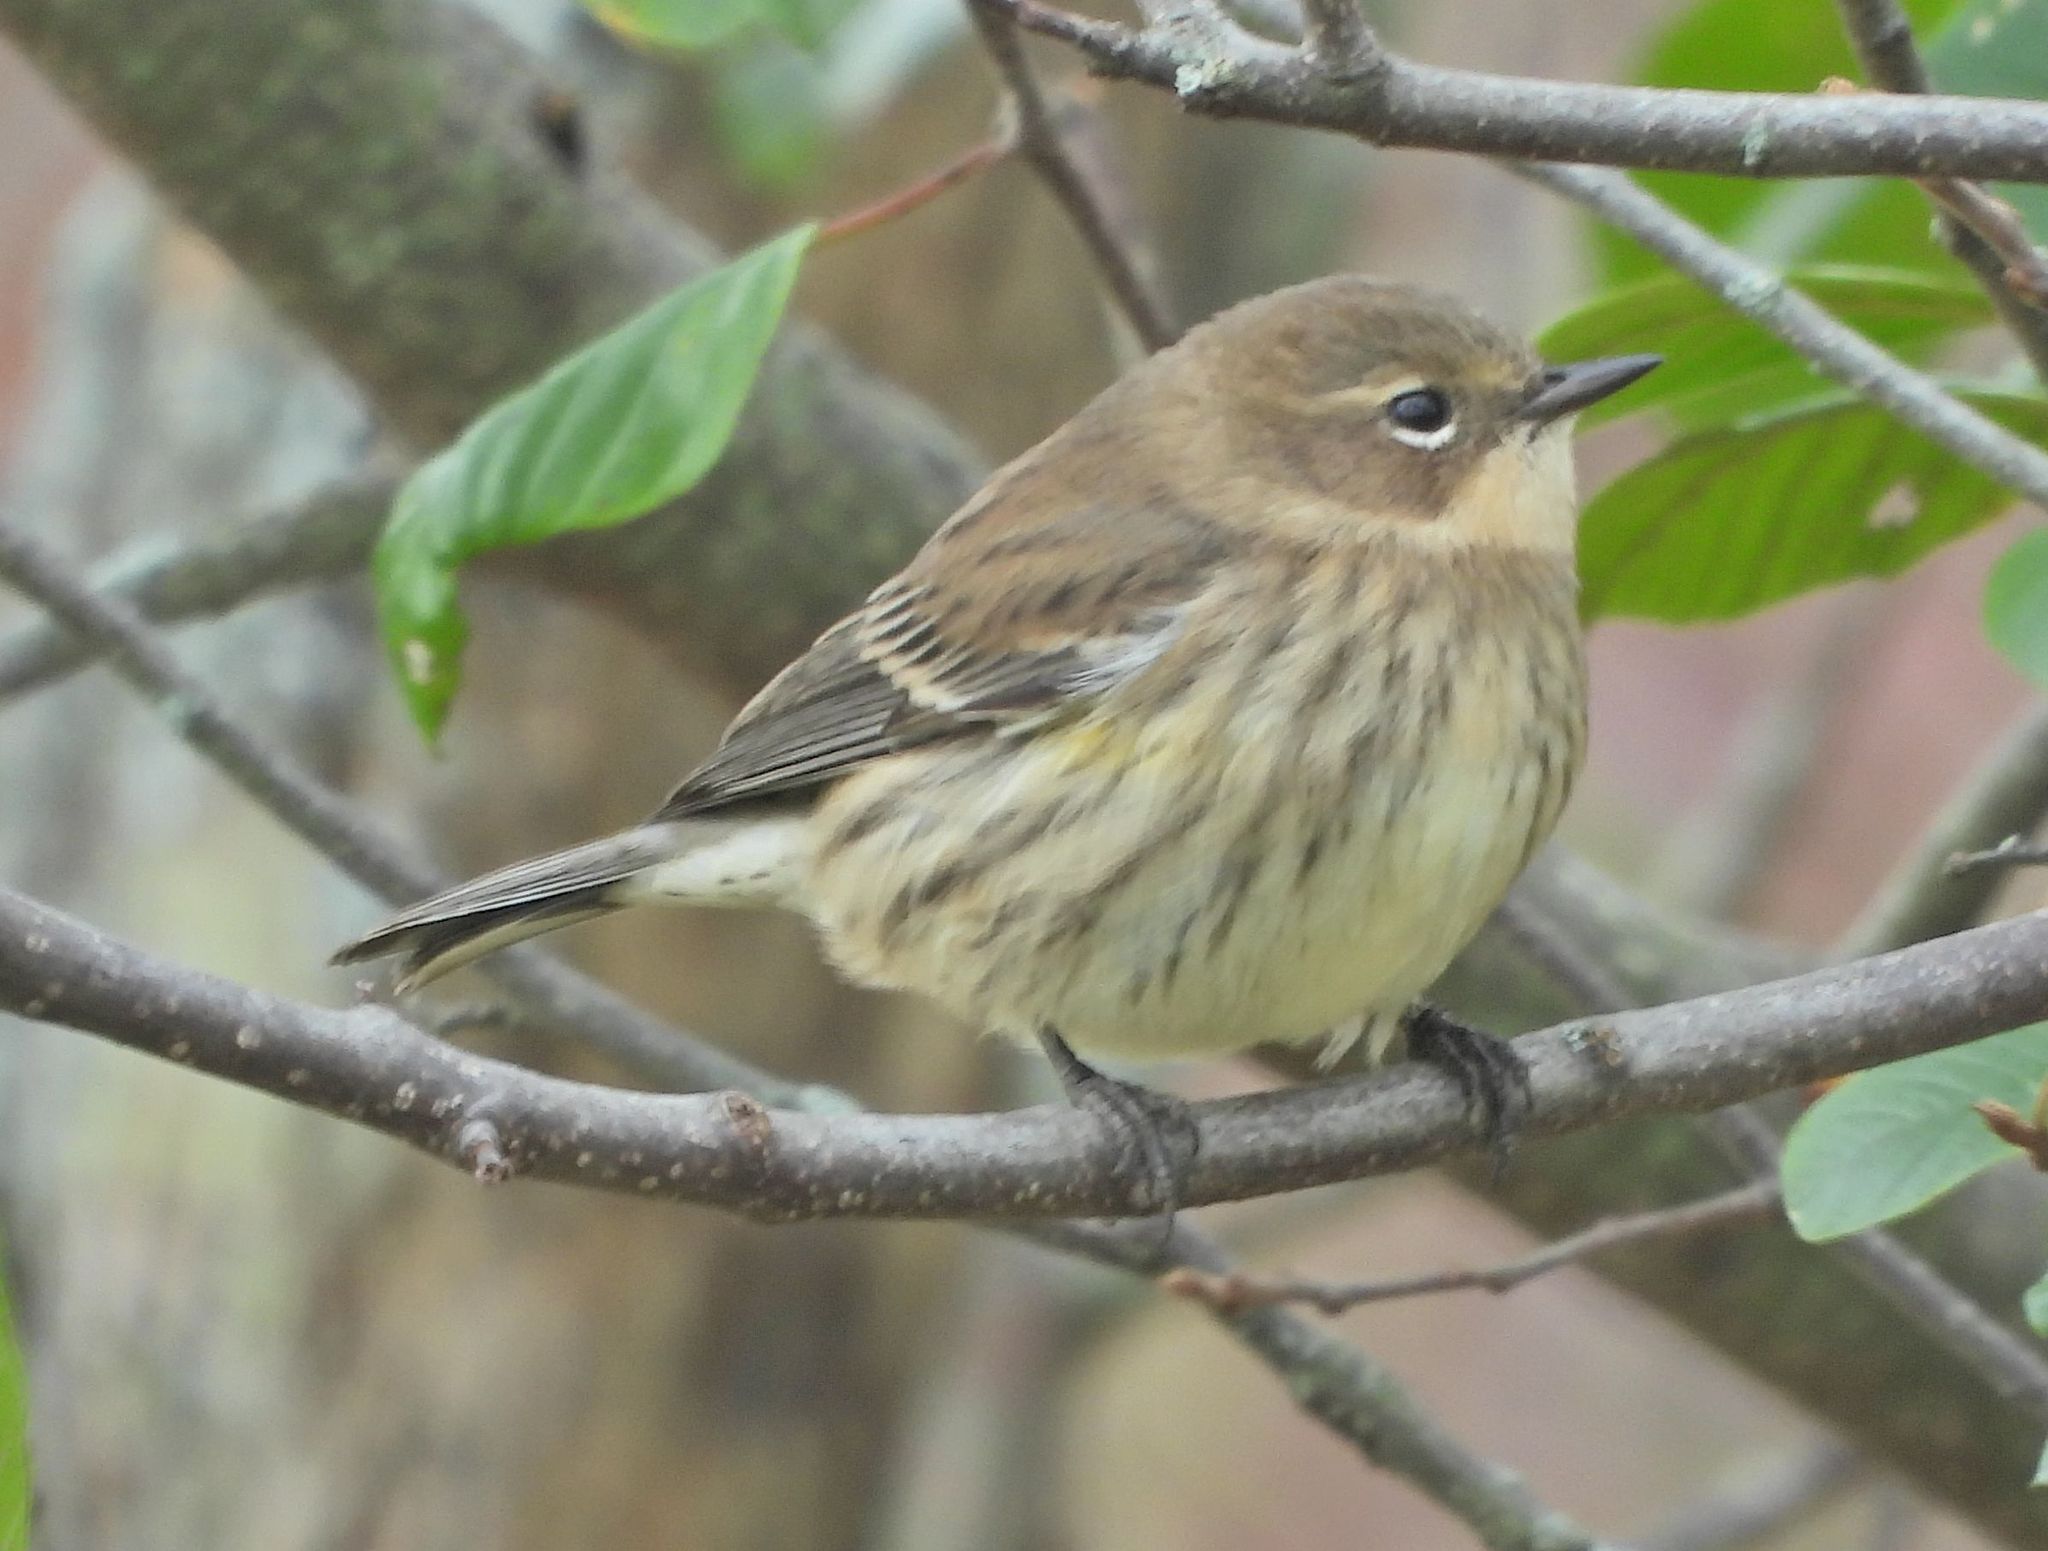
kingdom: Animalia
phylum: Chordata
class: Aves
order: Passeriformes
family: Parulidae
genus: Setophaga
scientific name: Setophaga coronata
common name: Myrtle warbler
